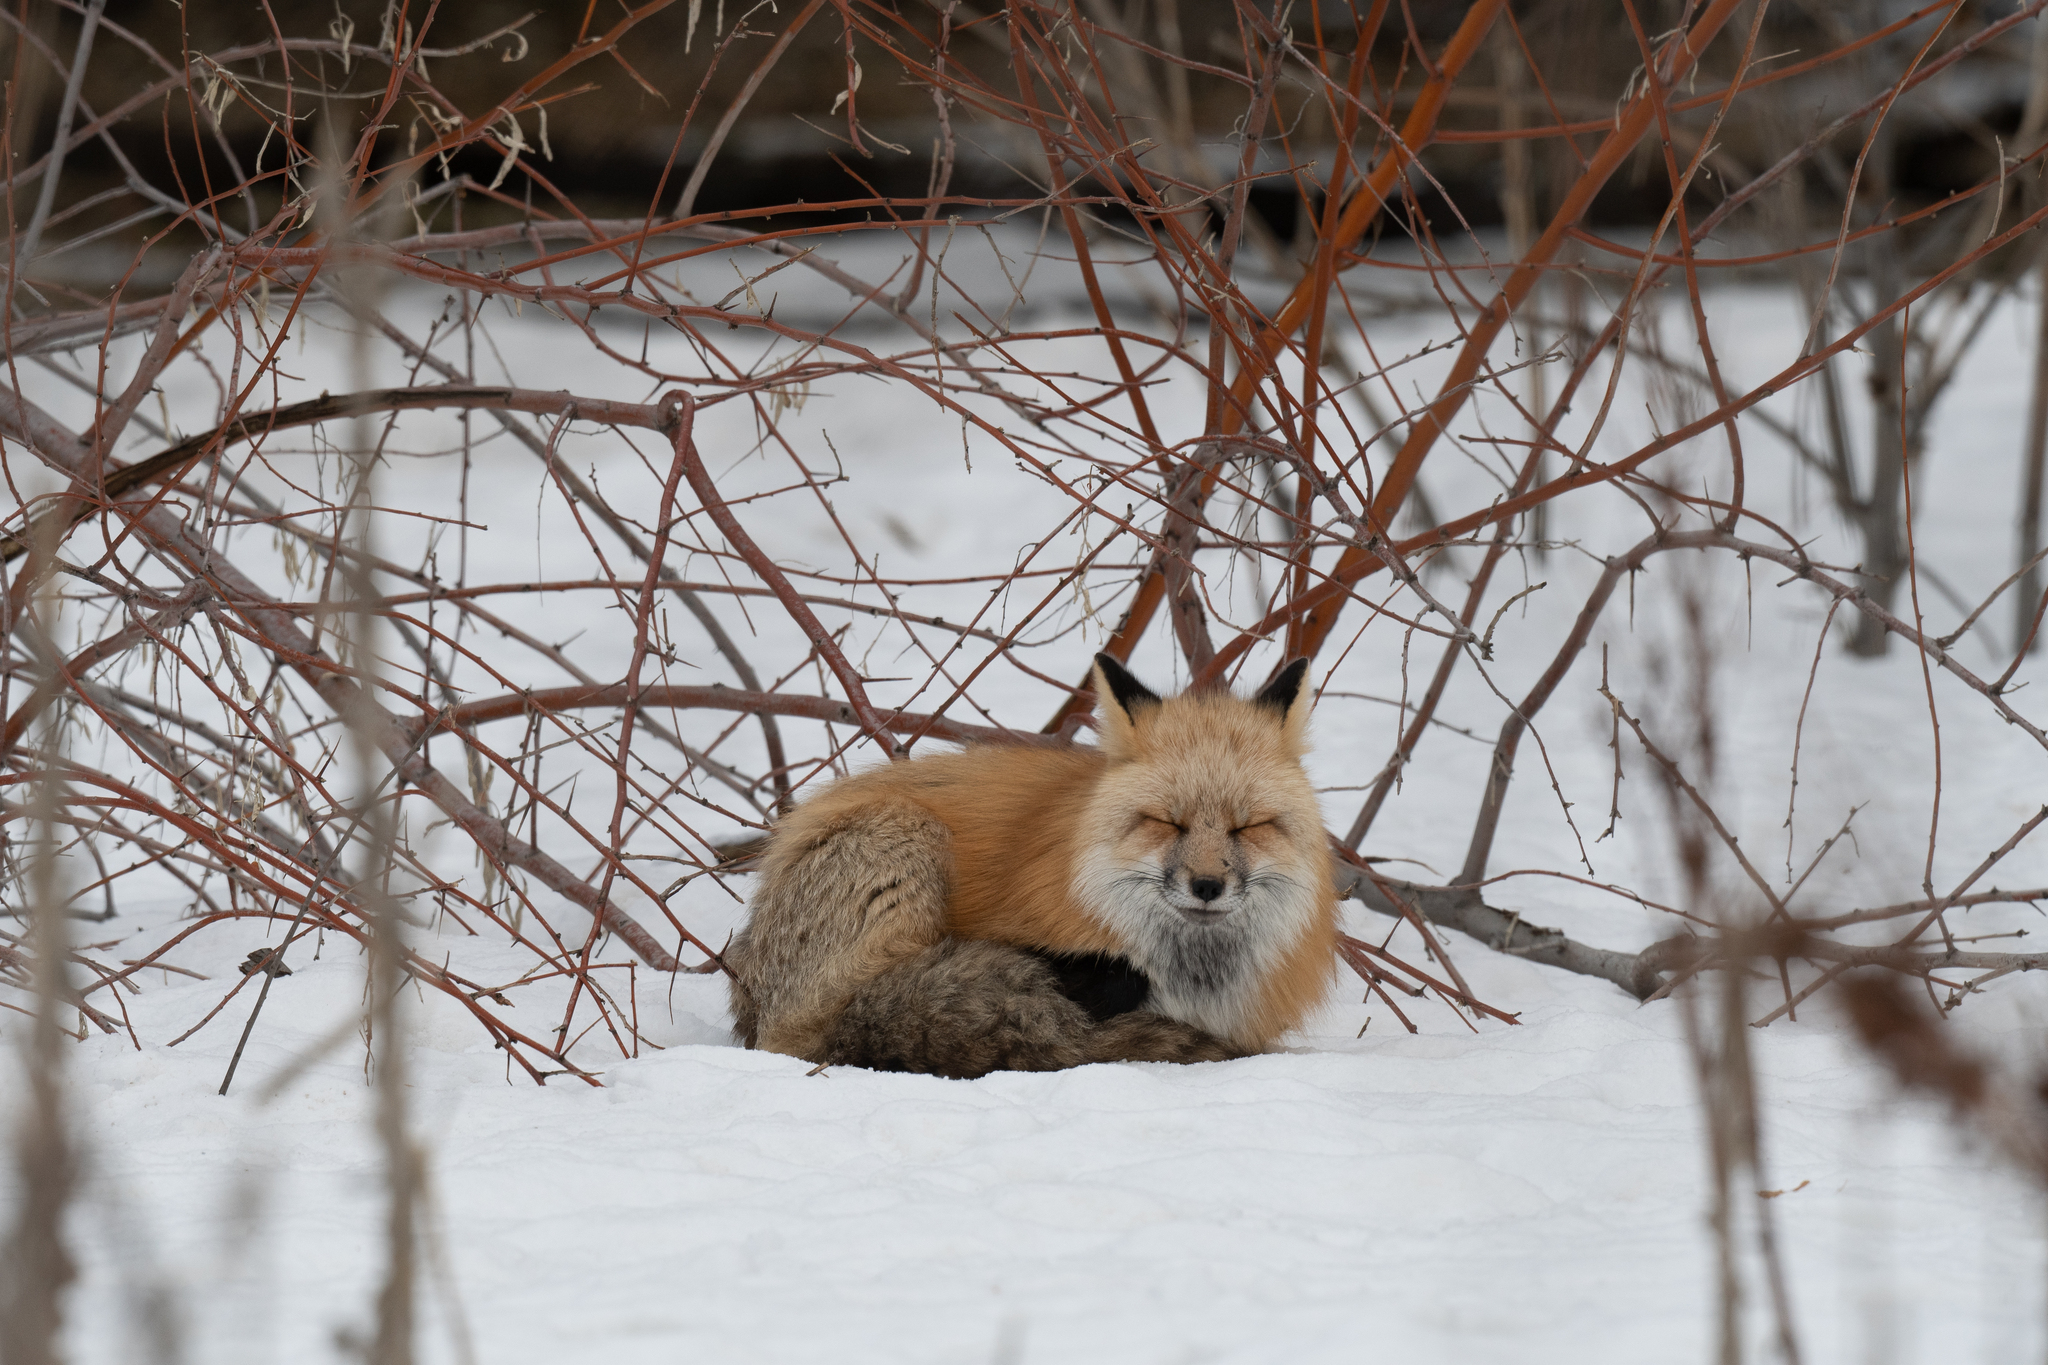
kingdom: Animalia
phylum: Chordata
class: Mammalia
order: Carnivora
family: Canidae
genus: Vulpes
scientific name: Vulpes vulpes
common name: Red fox
